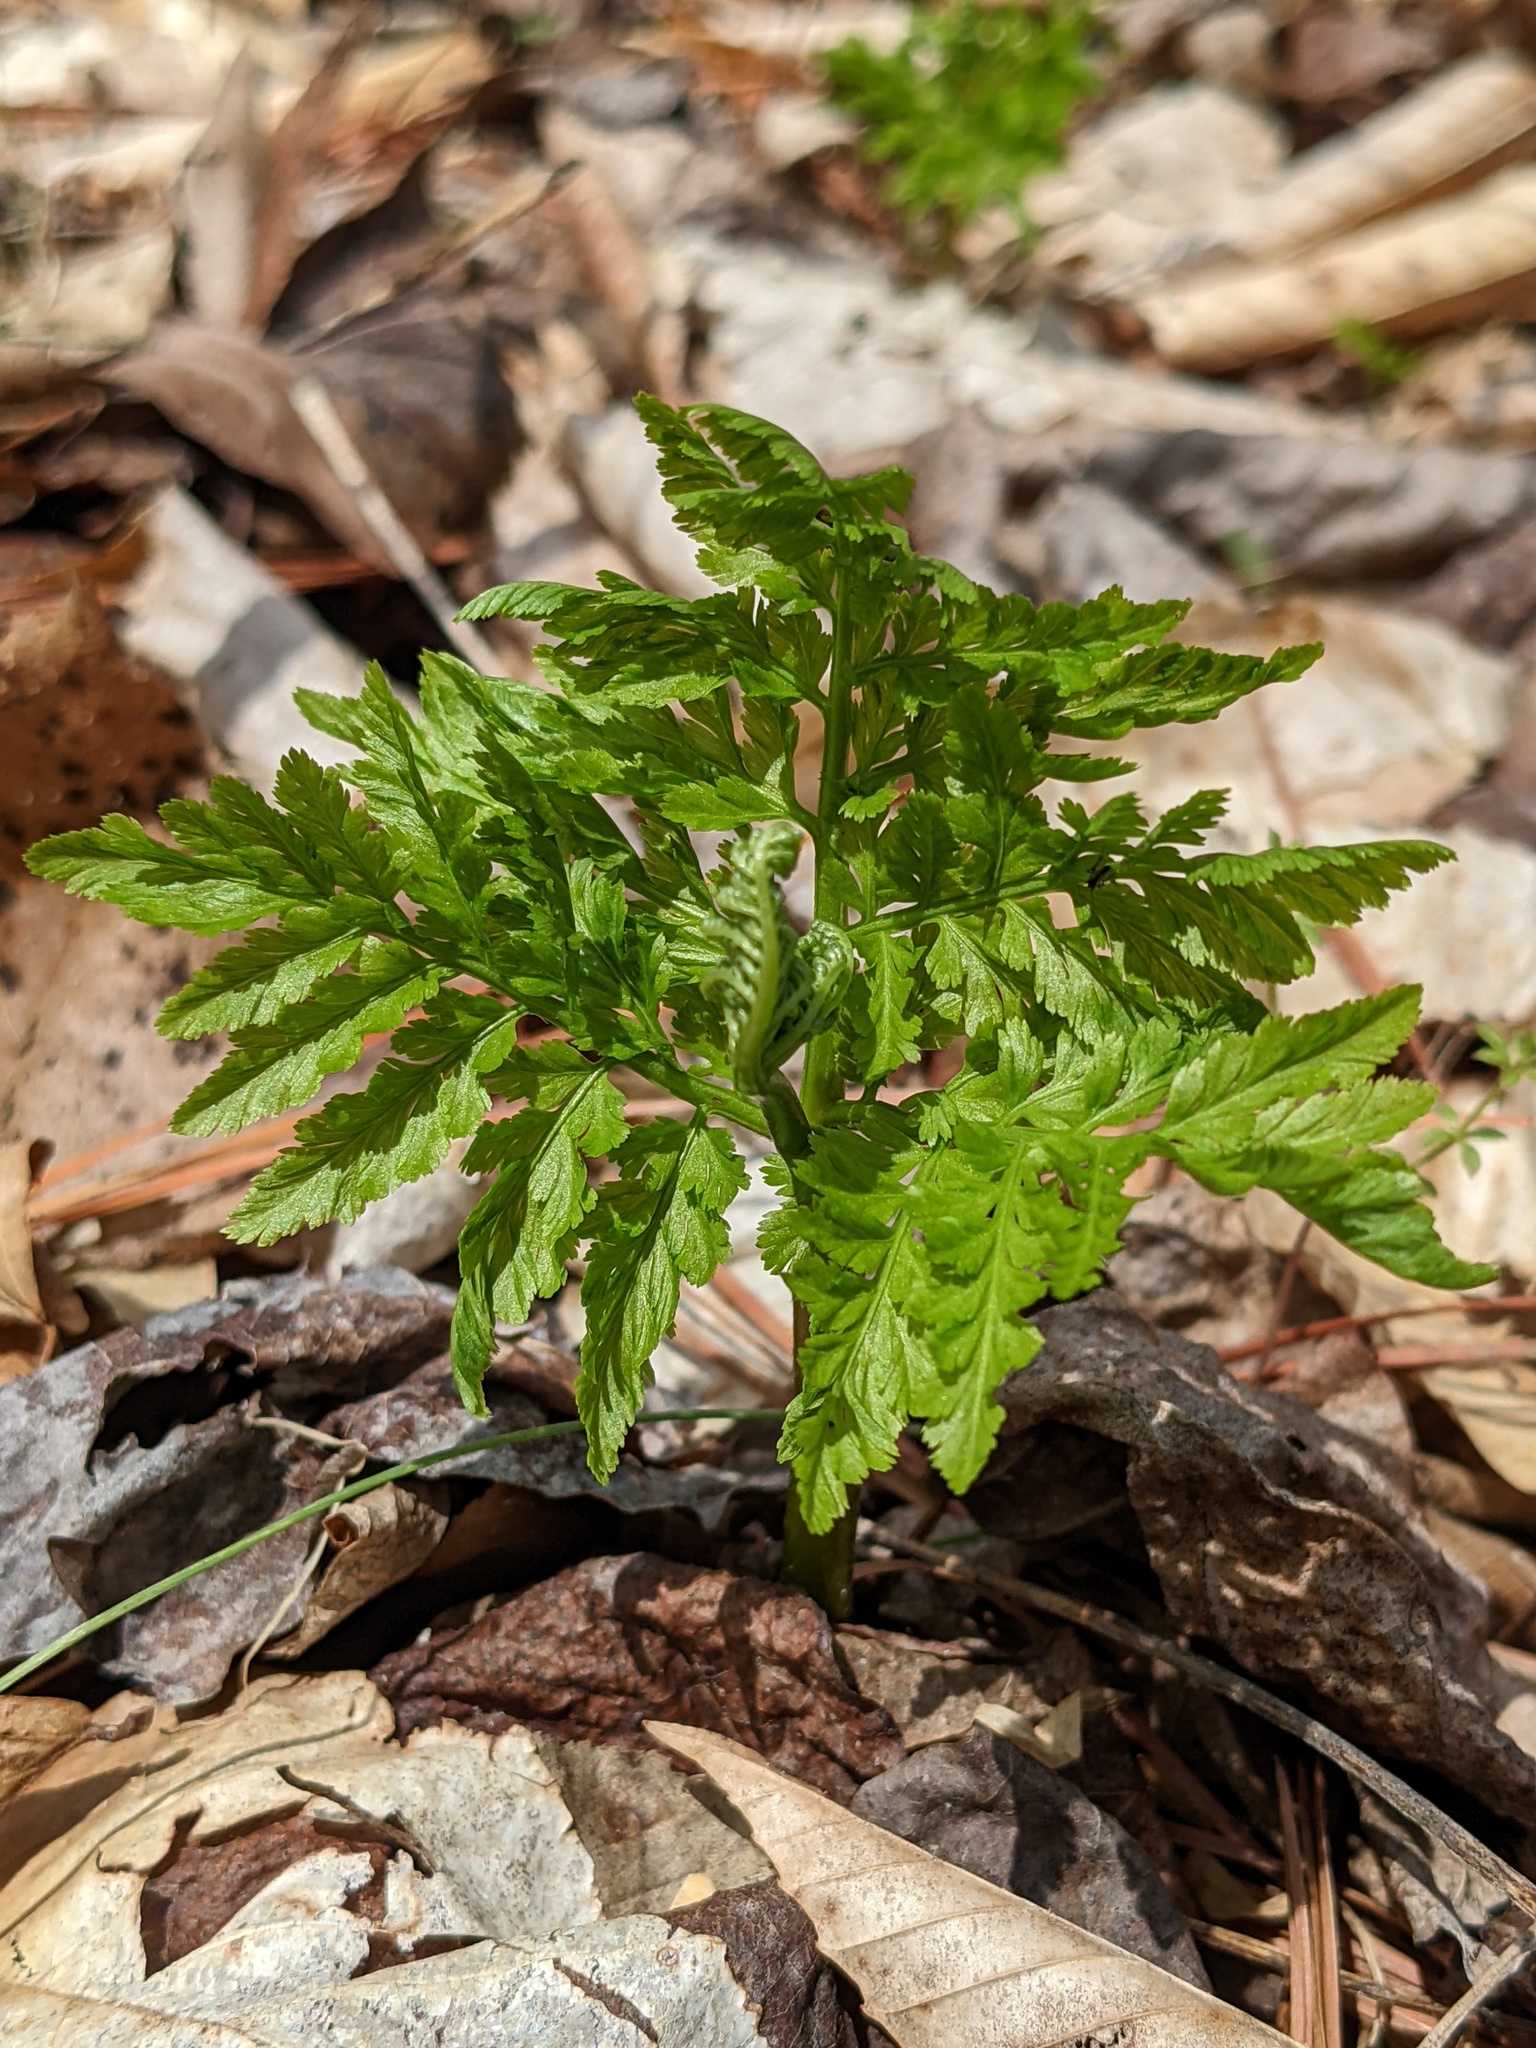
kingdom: Plantae
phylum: Tracheophyta
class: Polypodiopsida
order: Ophioglossales
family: Ophioglossaceae
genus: Botrypus
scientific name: Botrypus virginianus
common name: Common grapefern
